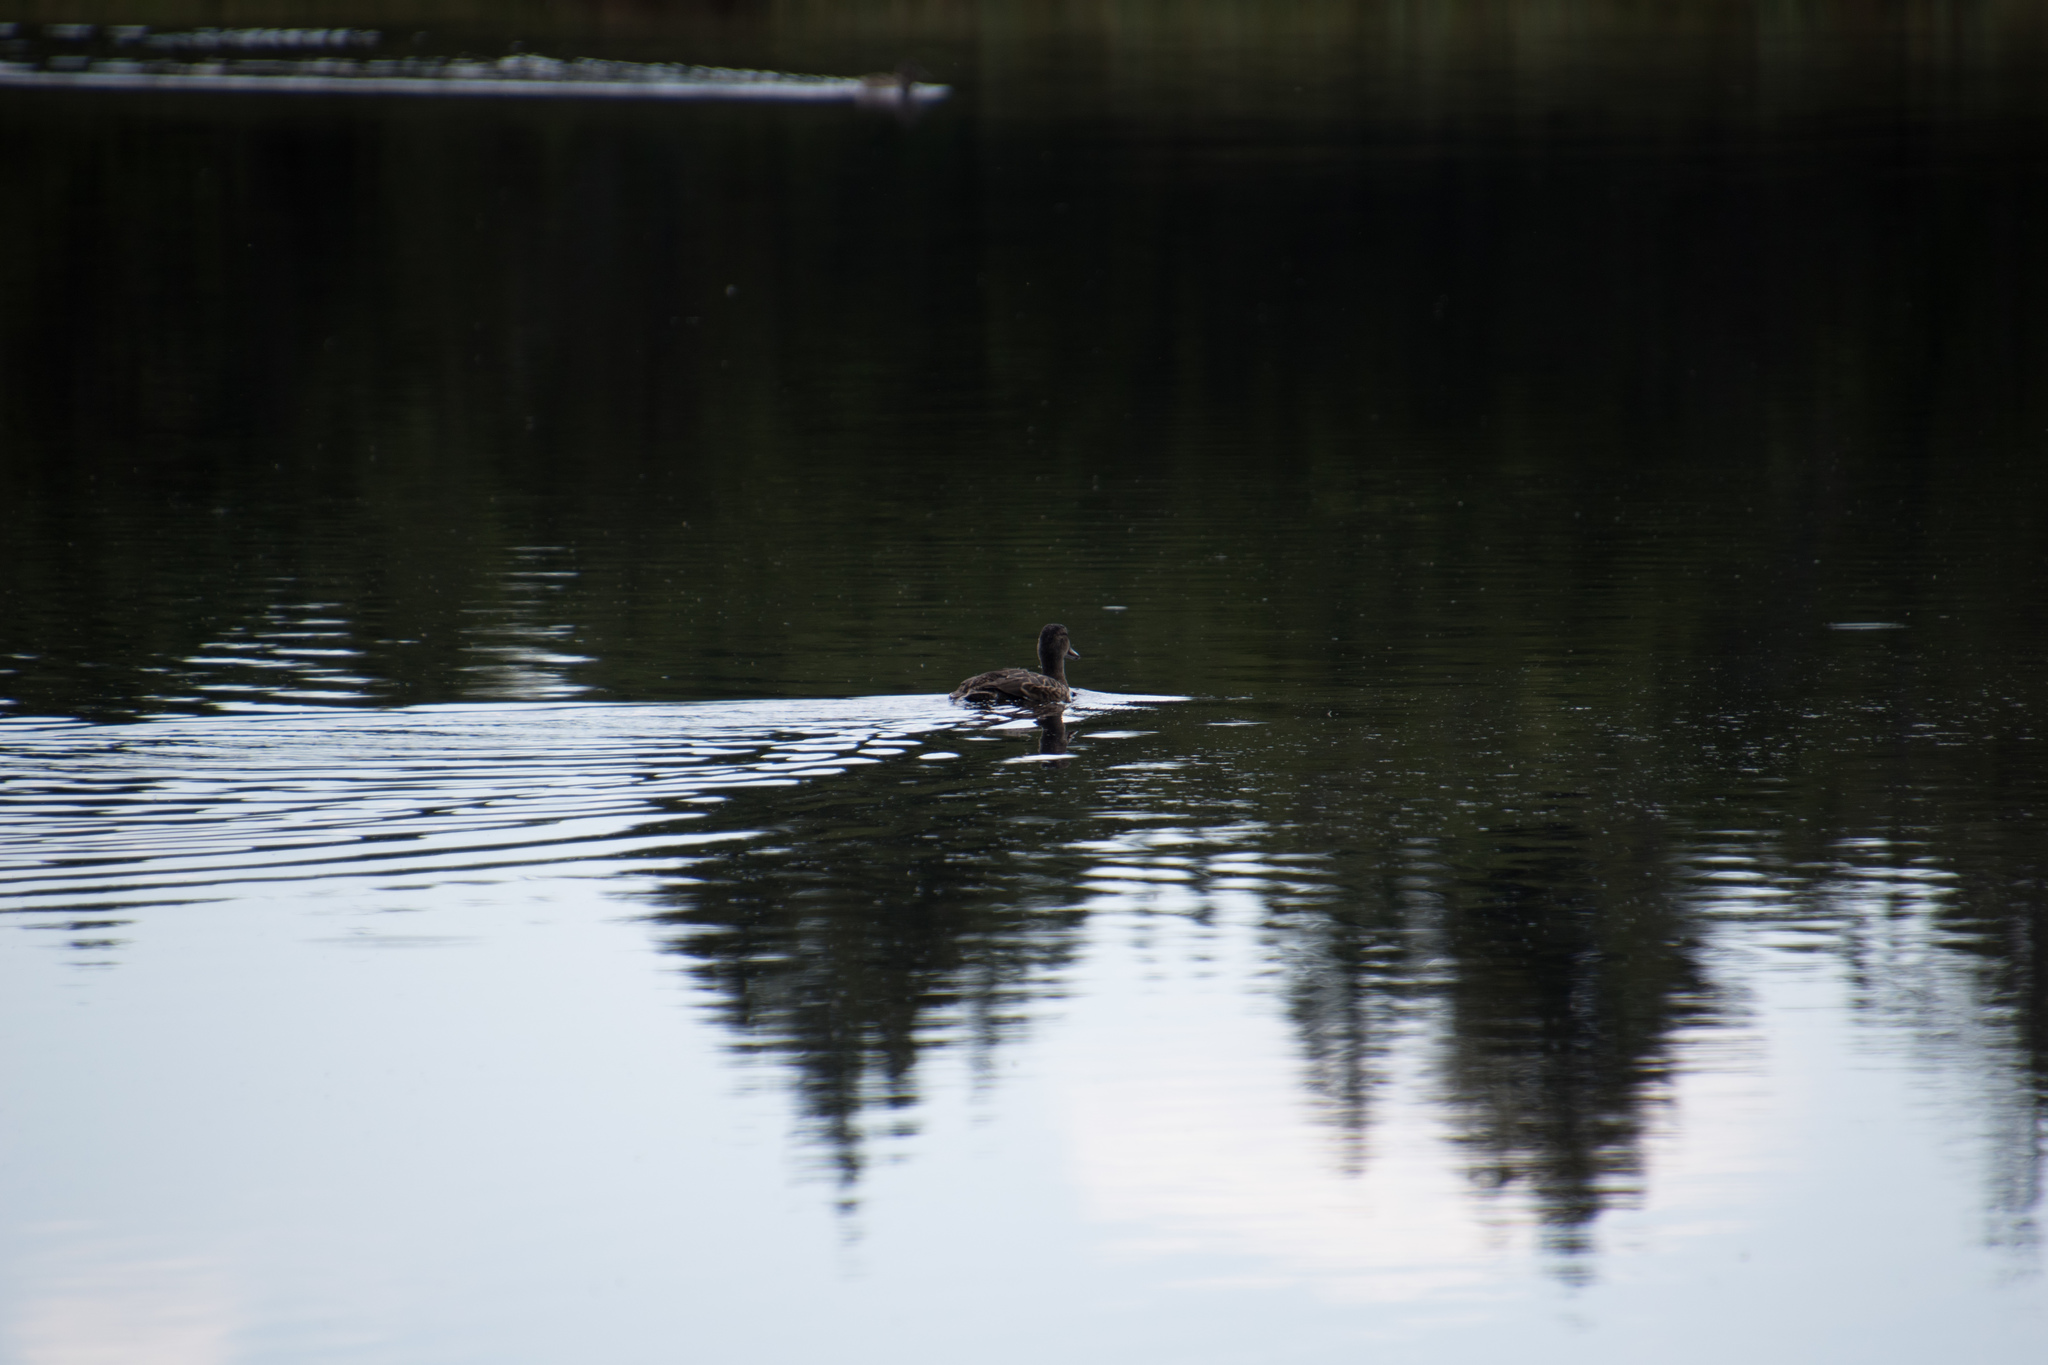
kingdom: Animalia
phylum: Chordata
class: Aves
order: Anseriformes
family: Anatidae
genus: Anas
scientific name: Anas platyrhynchos
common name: Mallard
